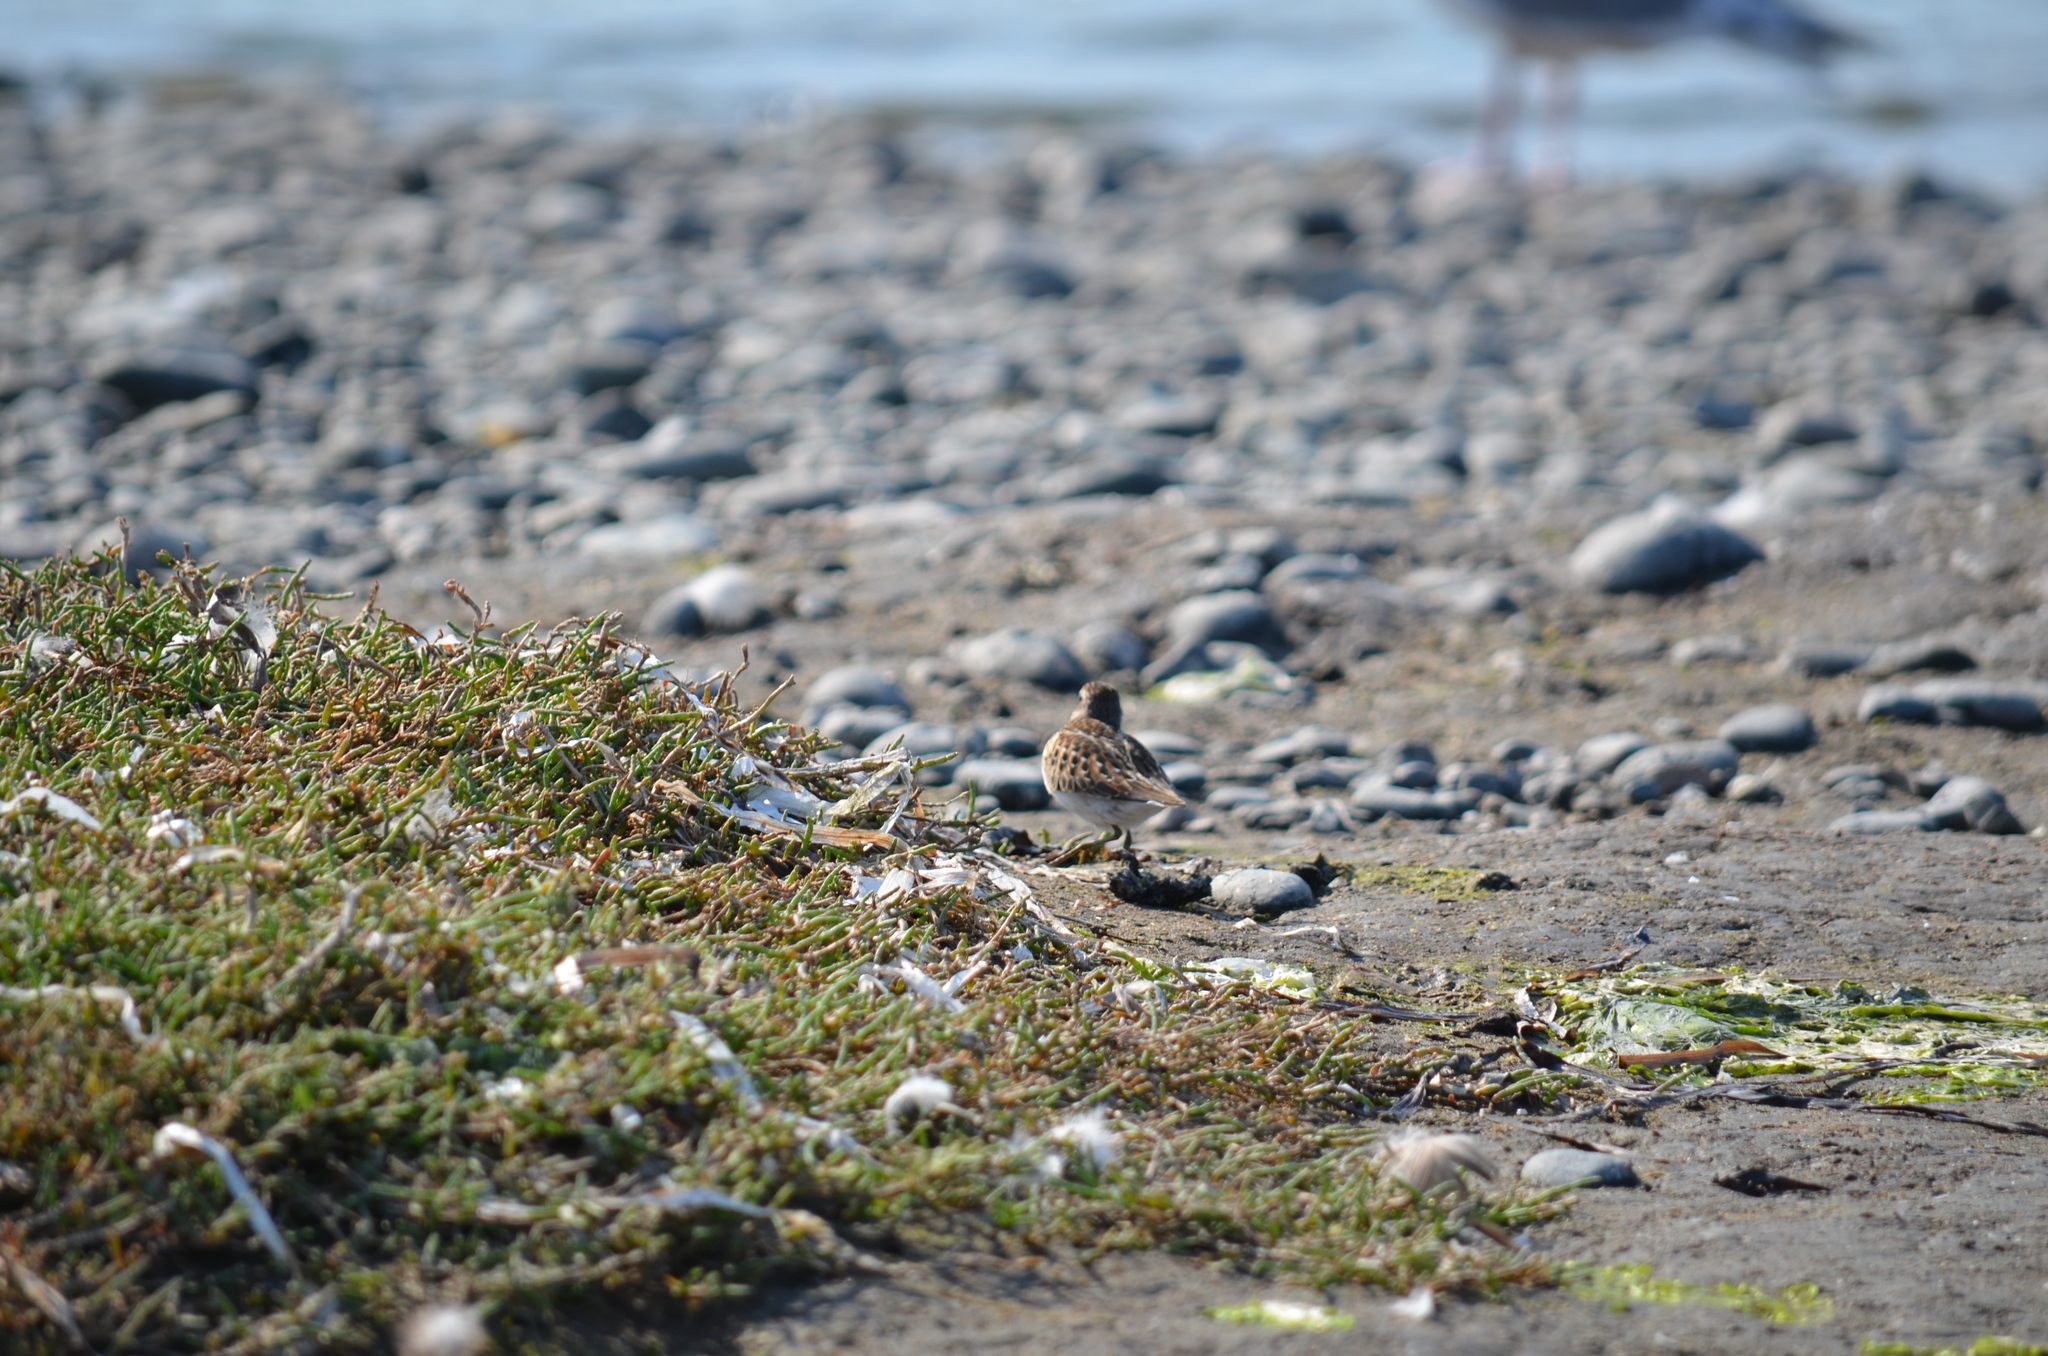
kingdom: Animalia
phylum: Chordata
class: Aves
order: Charadriiformes
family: Scolopacidae
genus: Calidris
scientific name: Calidris minutilla
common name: Least sandpiper
